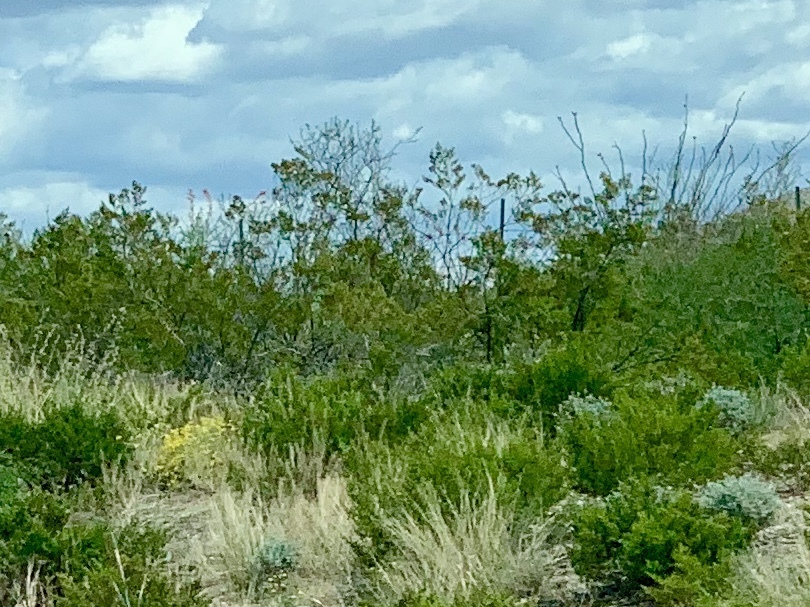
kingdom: Plantae
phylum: Tracheophyta
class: Magnoliopsida
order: Zygophyllales
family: Zygophyllaceae
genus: Larrea
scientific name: Larrea tridentata
